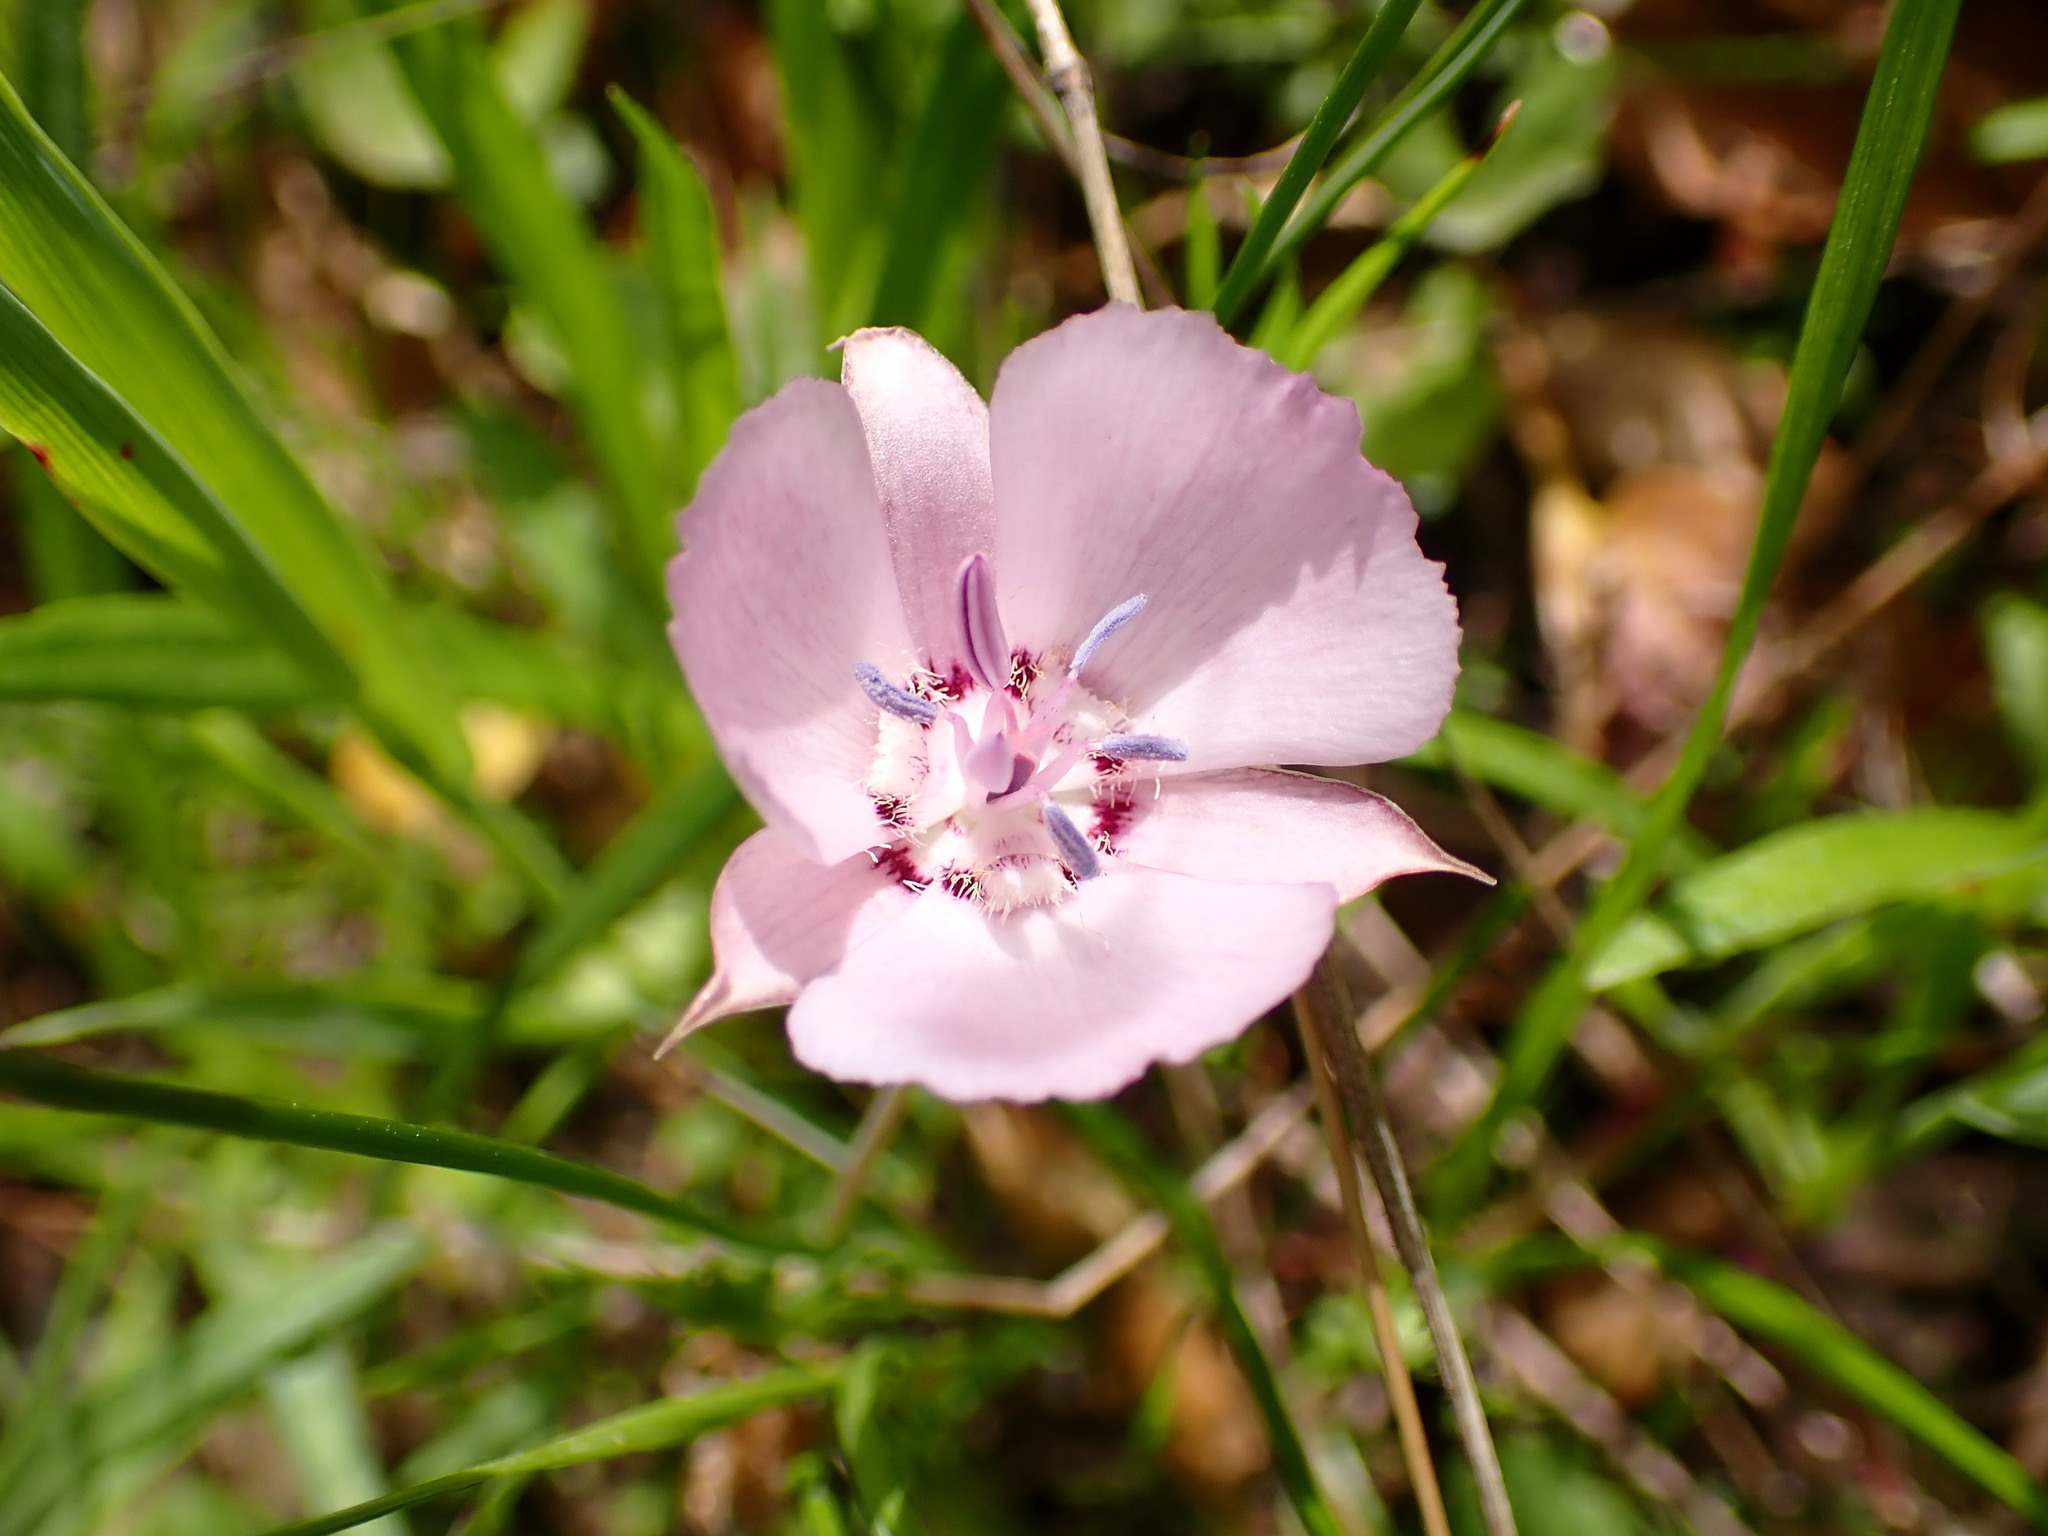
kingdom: Plantae
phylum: Tracheophyta
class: Liliopsida
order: Liliales
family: Liliaceae
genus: Calochortus
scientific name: Calochortus umbellatus
